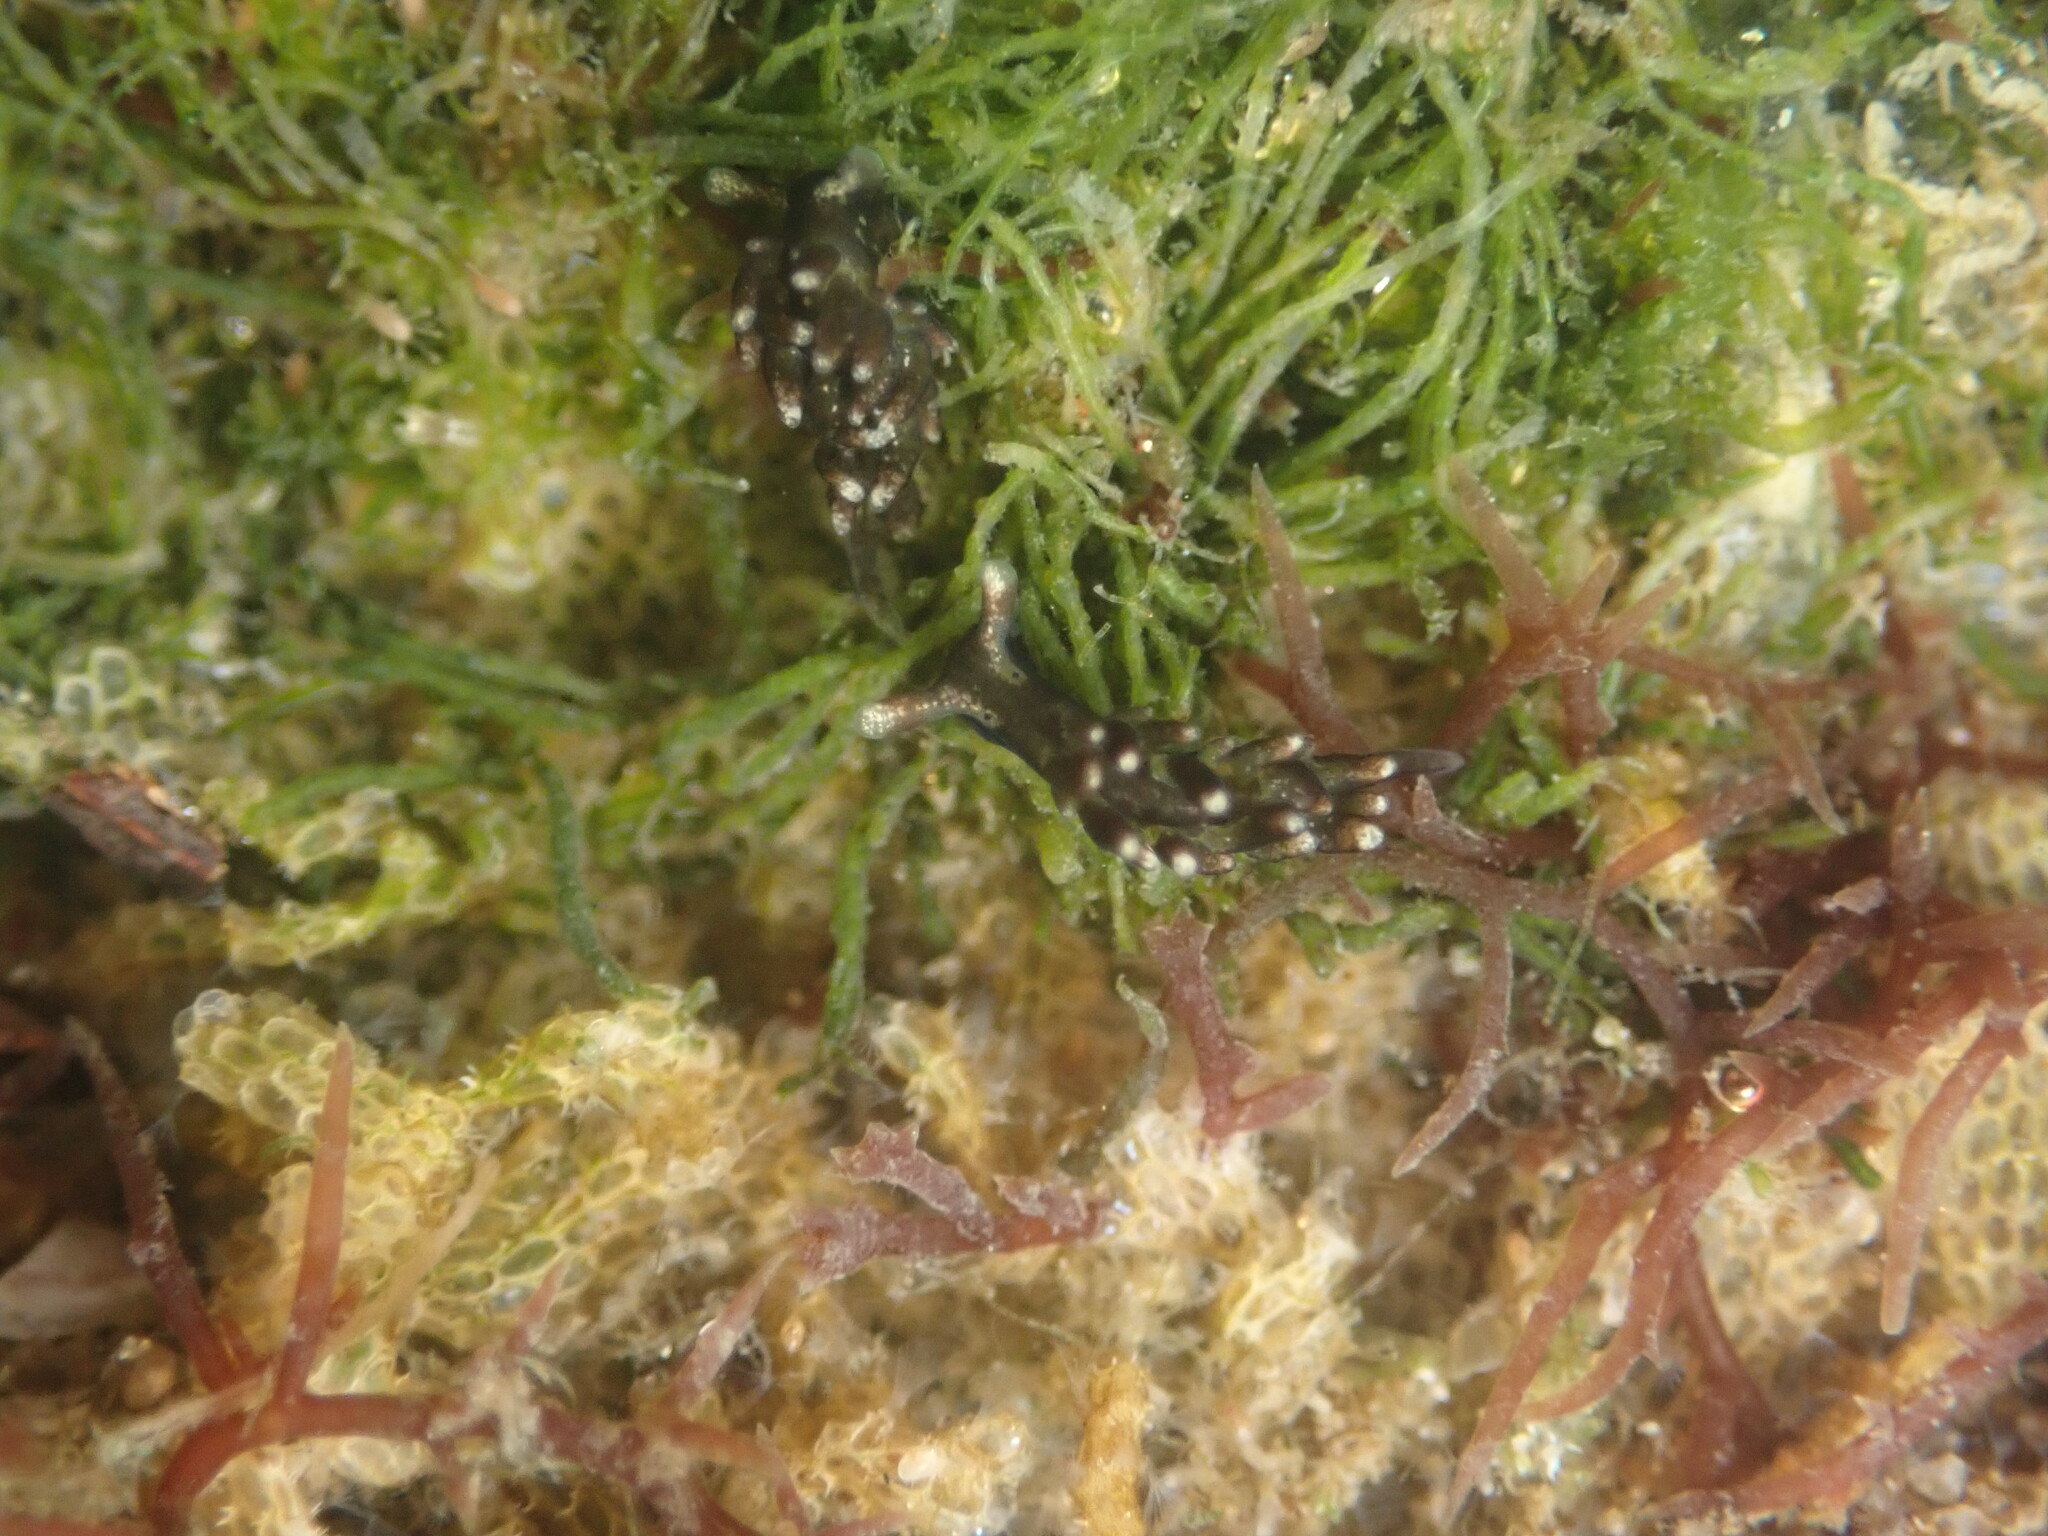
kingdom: Animalia
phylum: Mollusca
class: Gastropoda
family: Hermaeidae
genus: Aplysiopsis
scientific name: Aplysiopsis enteromorphae
